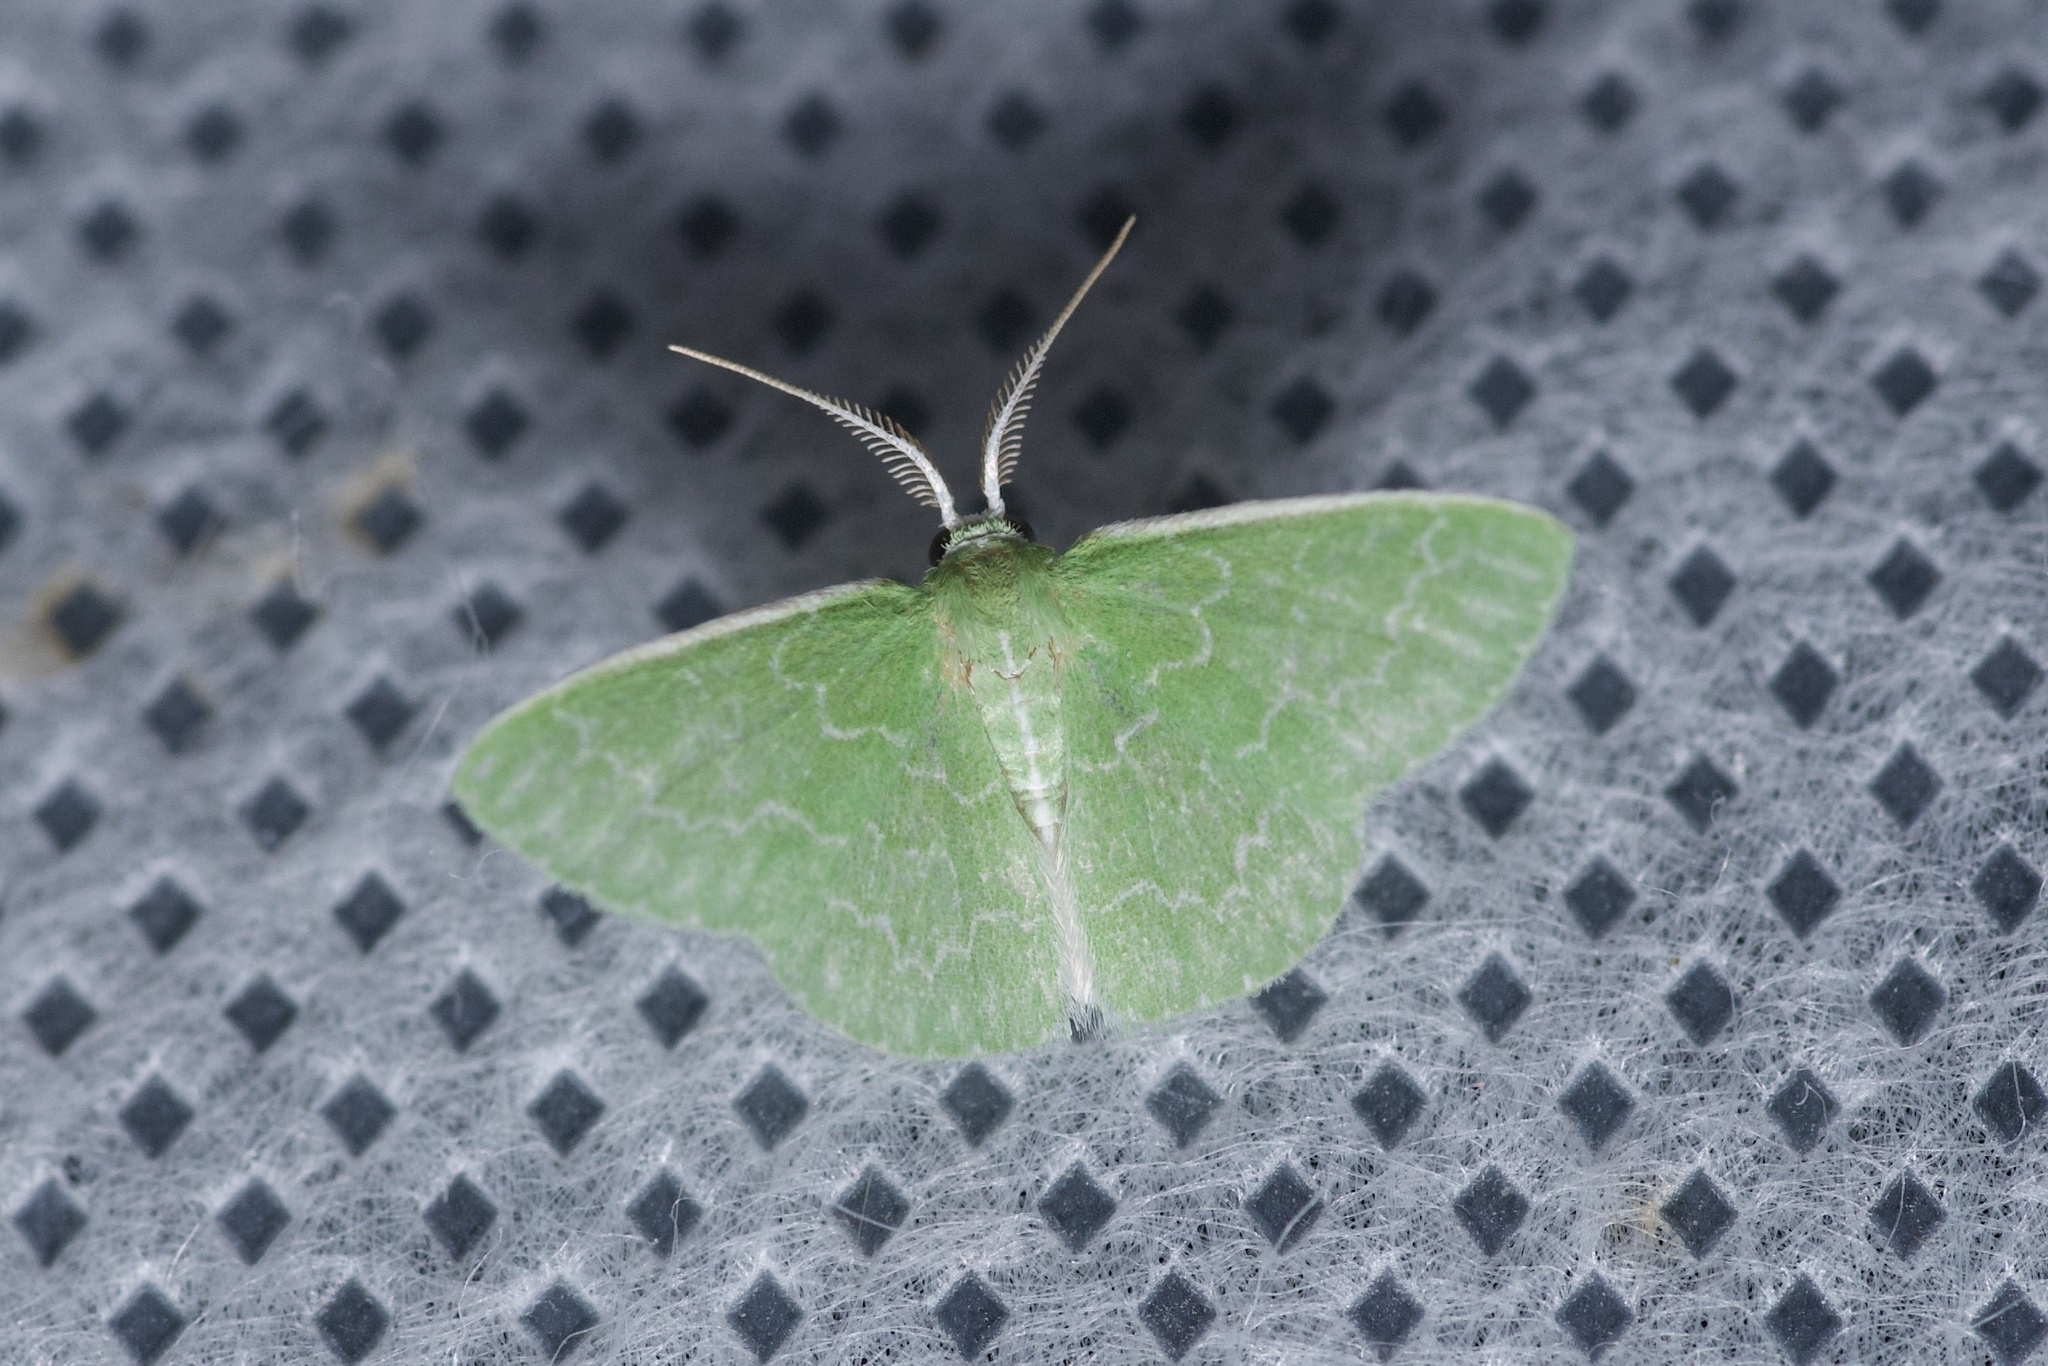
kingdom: Animalia
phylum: Arthropoda
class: Insecta
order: Lepidoptera
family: Geometridae
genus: Synchlora
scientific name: Synchlora frondaria
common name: Southern emerald
